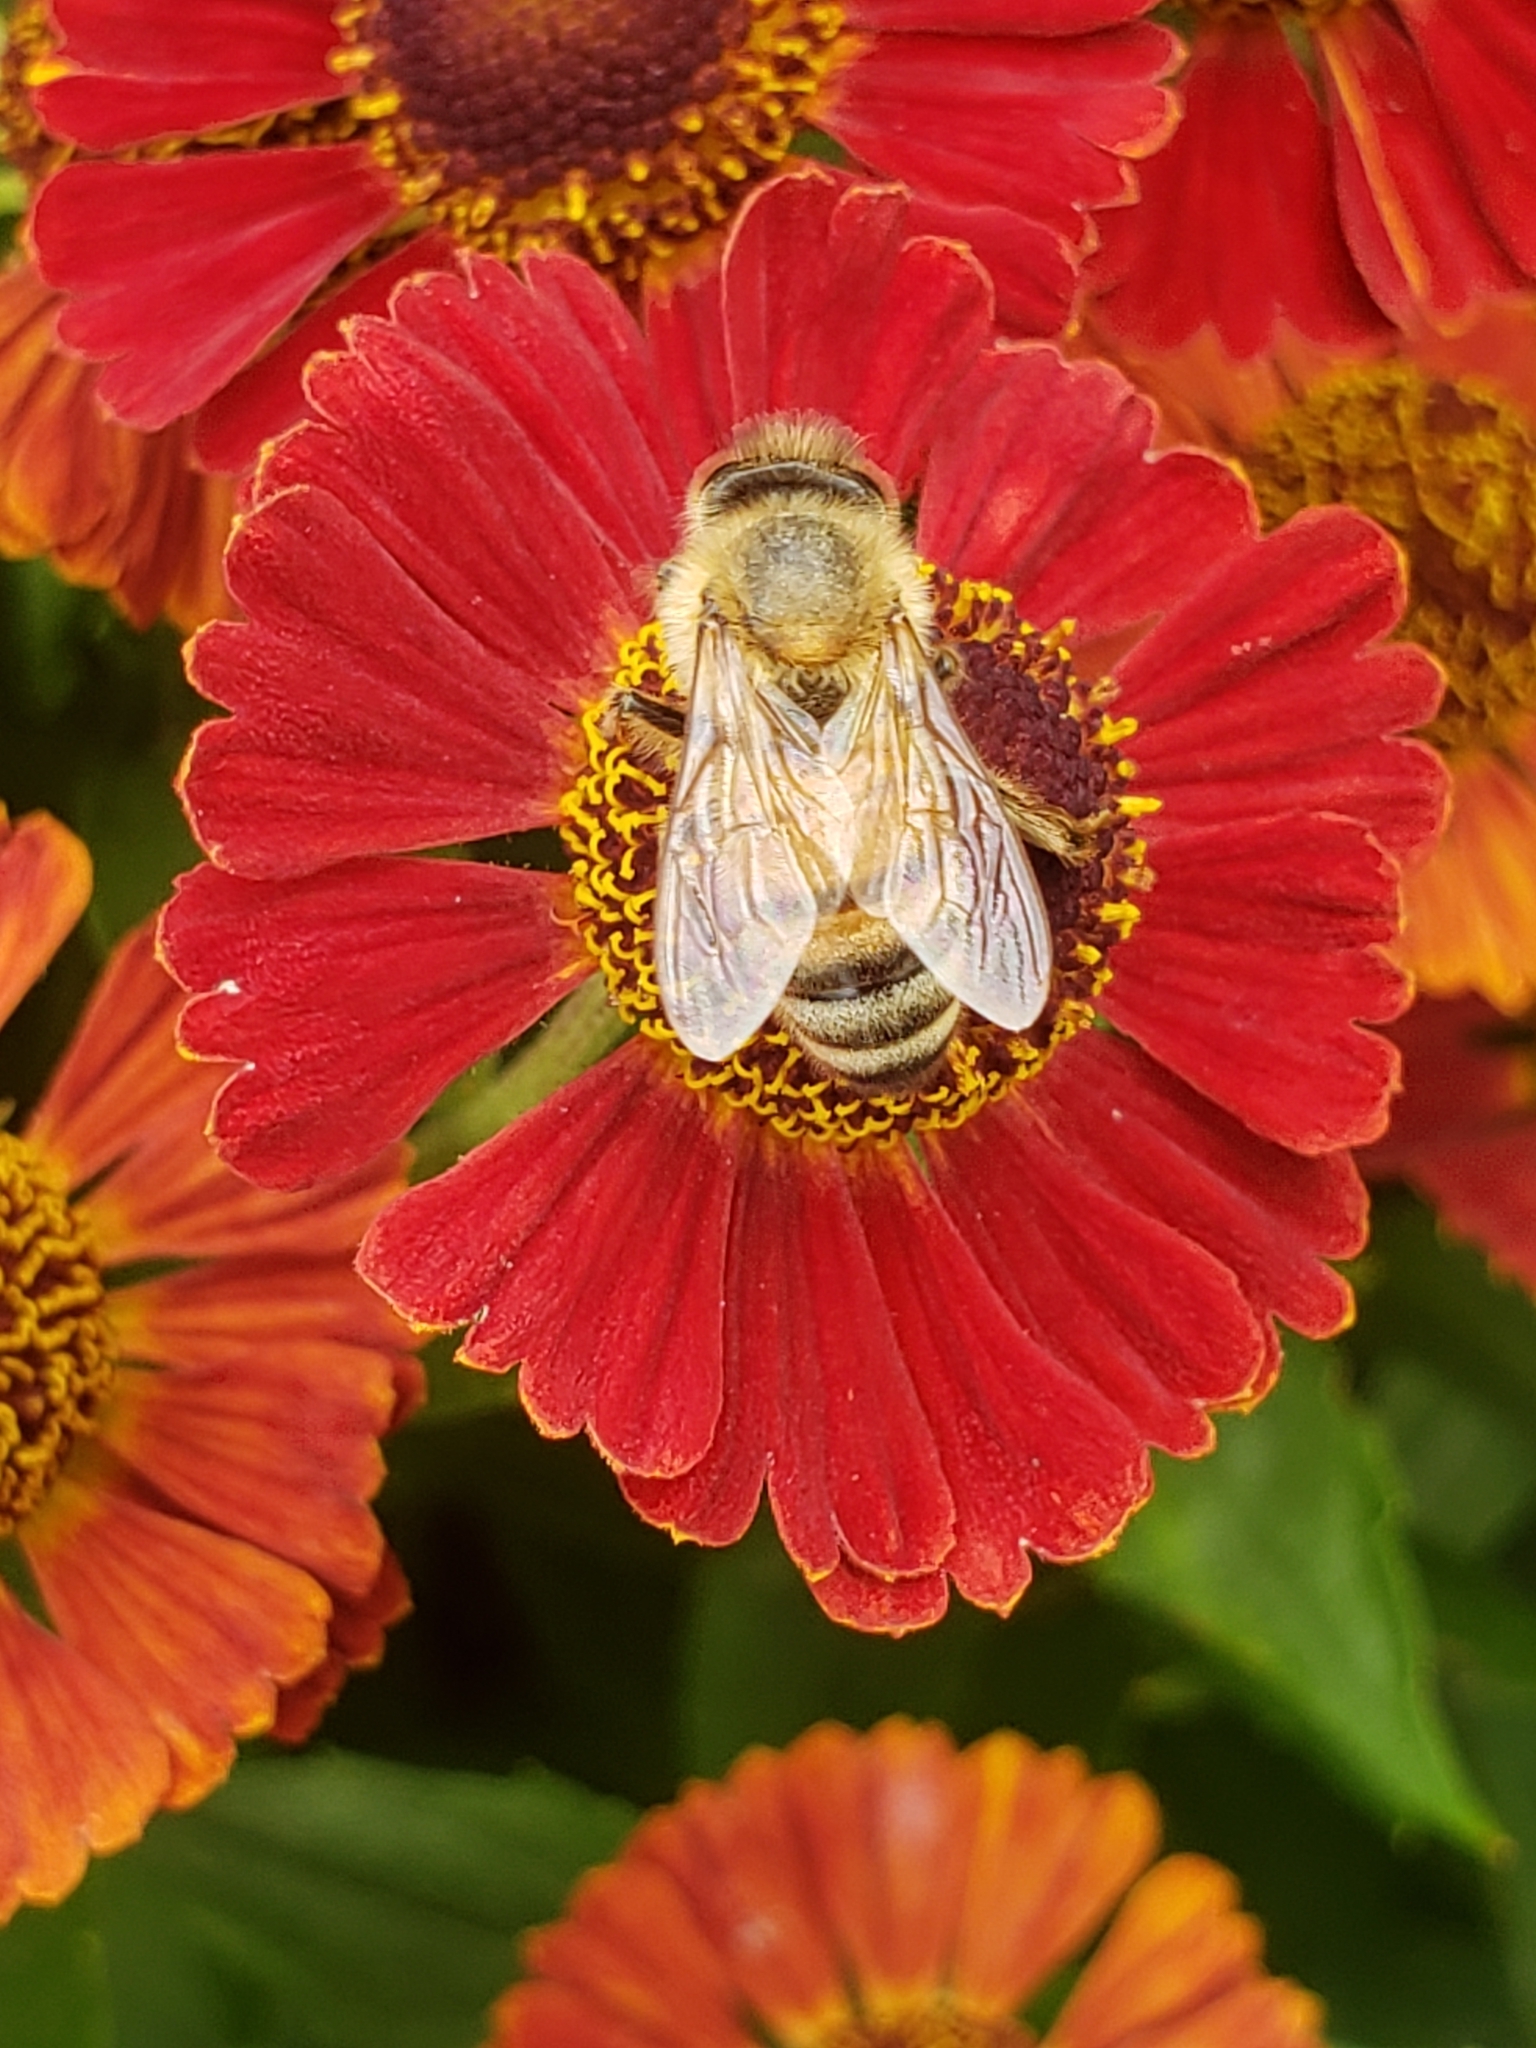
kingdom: Animalia
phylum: Arthropoda
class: Insecta
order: Hymenoptera
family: Apidae
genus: Apis
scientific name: Apis mellifera
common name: Honey bee
